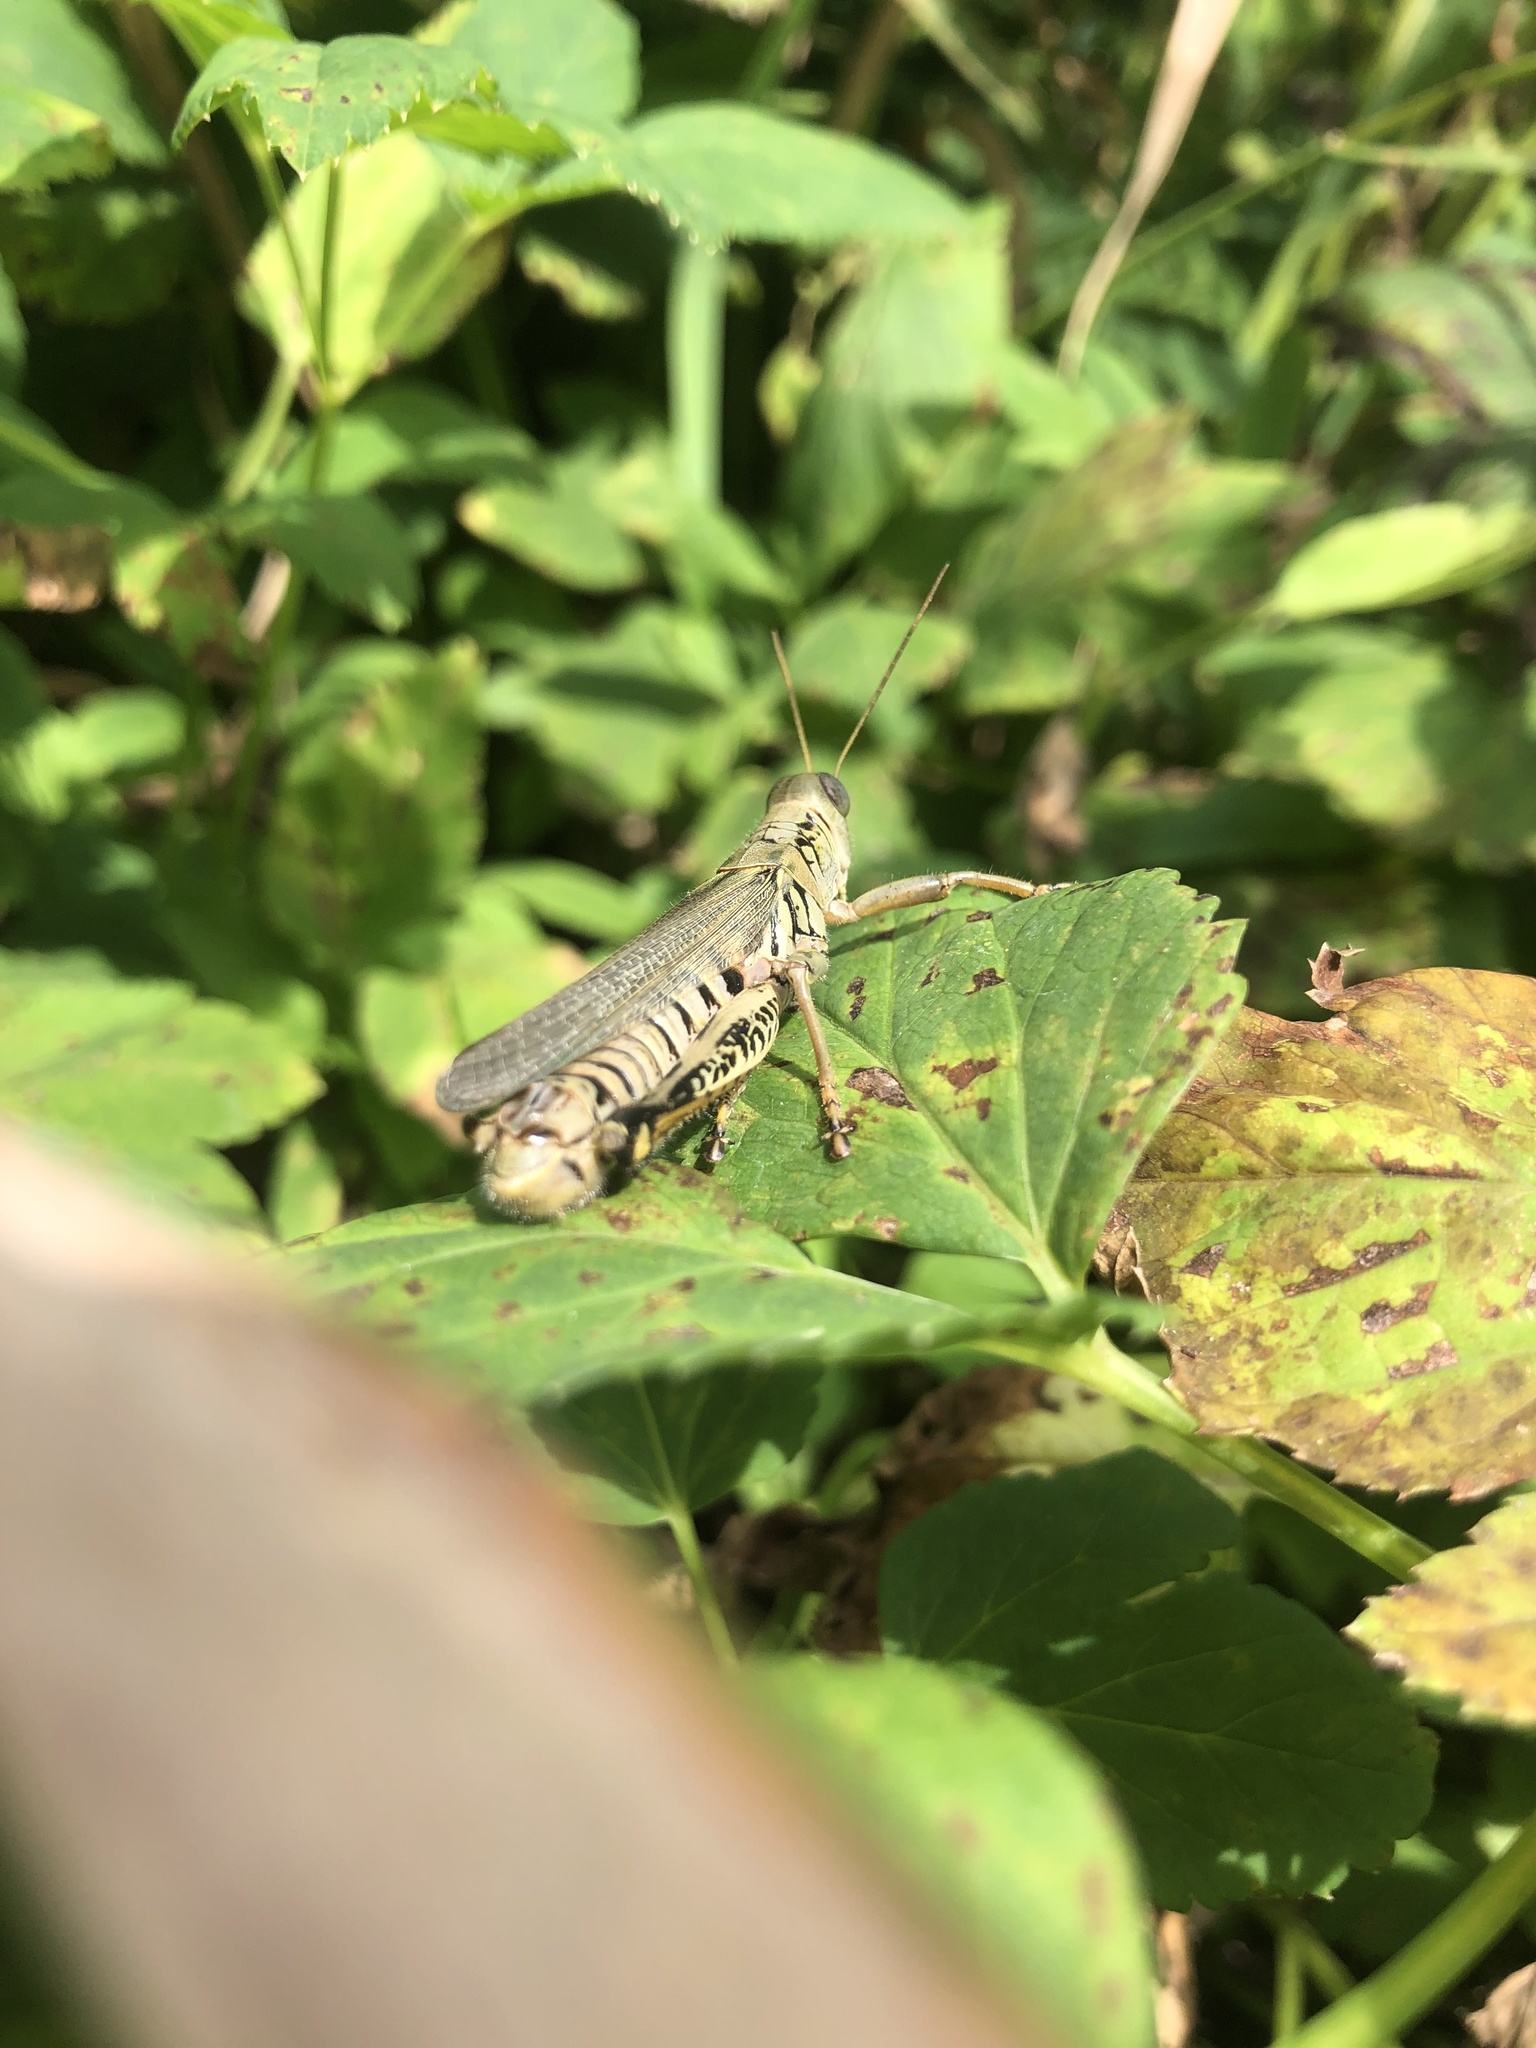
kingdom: Animalia
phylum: Arthropoda
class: Insecta
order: Orthoptera
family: Acrididae
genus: Melanoplus
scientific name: Melanoplus differentialis
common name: Differential grasshopper
